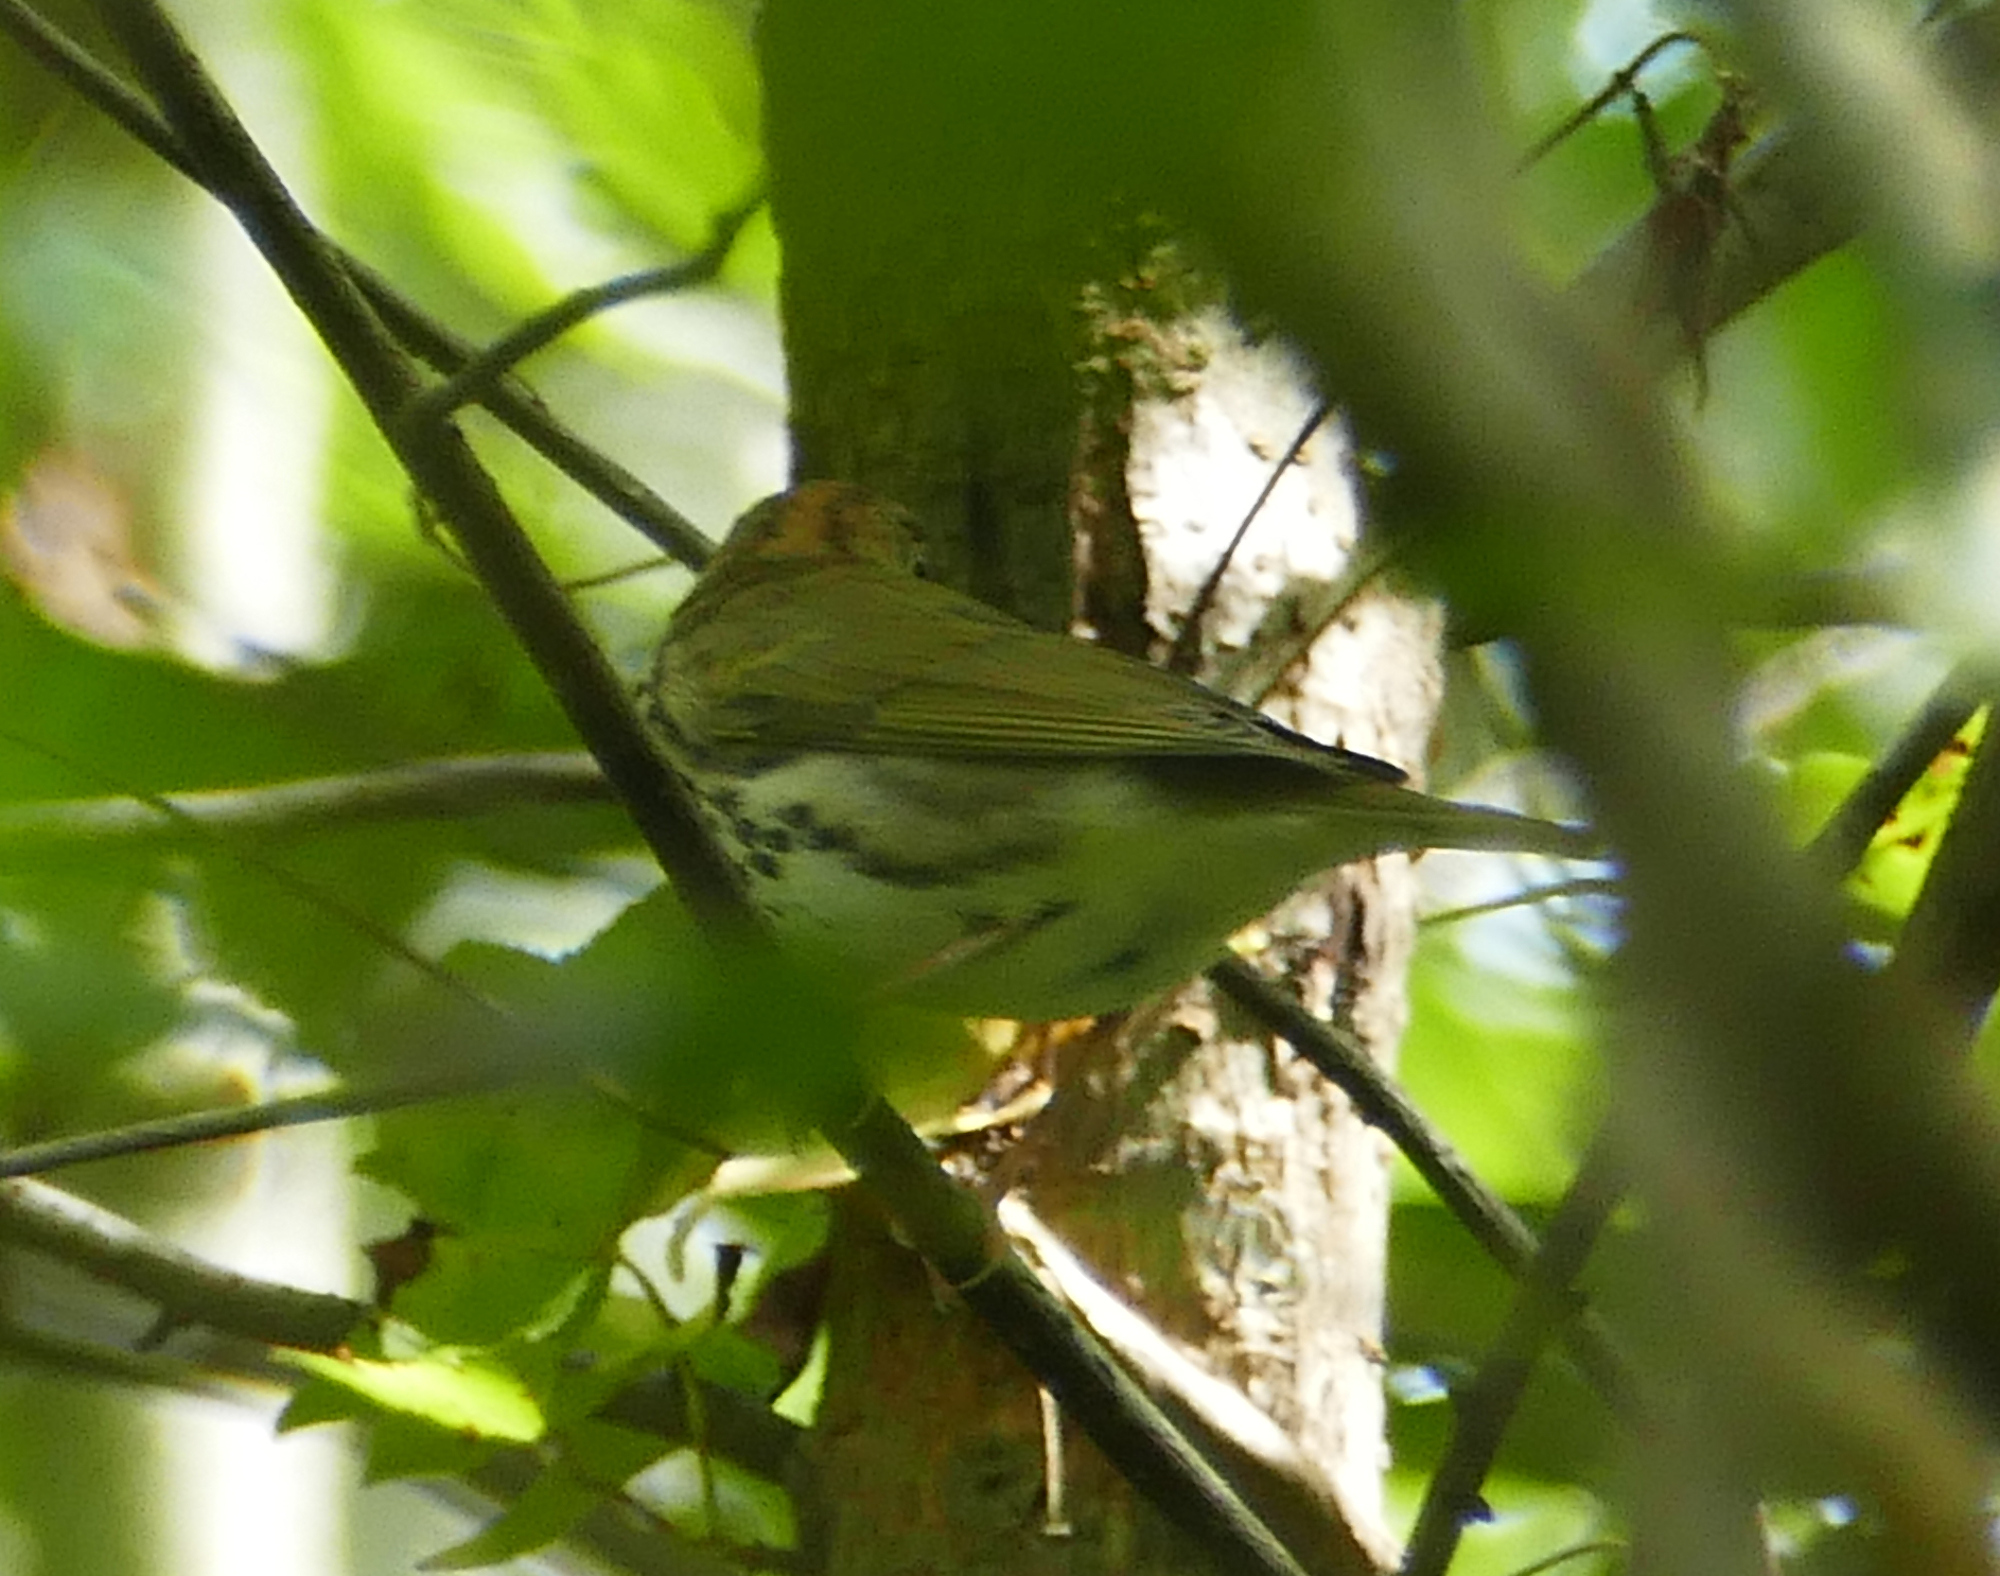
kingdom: Animalia
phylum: Chordata
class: Aves
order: Passeriformes
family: Parulidae
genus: Seiurus
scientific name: Seiurus aurocapilla
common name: Ovenbird
